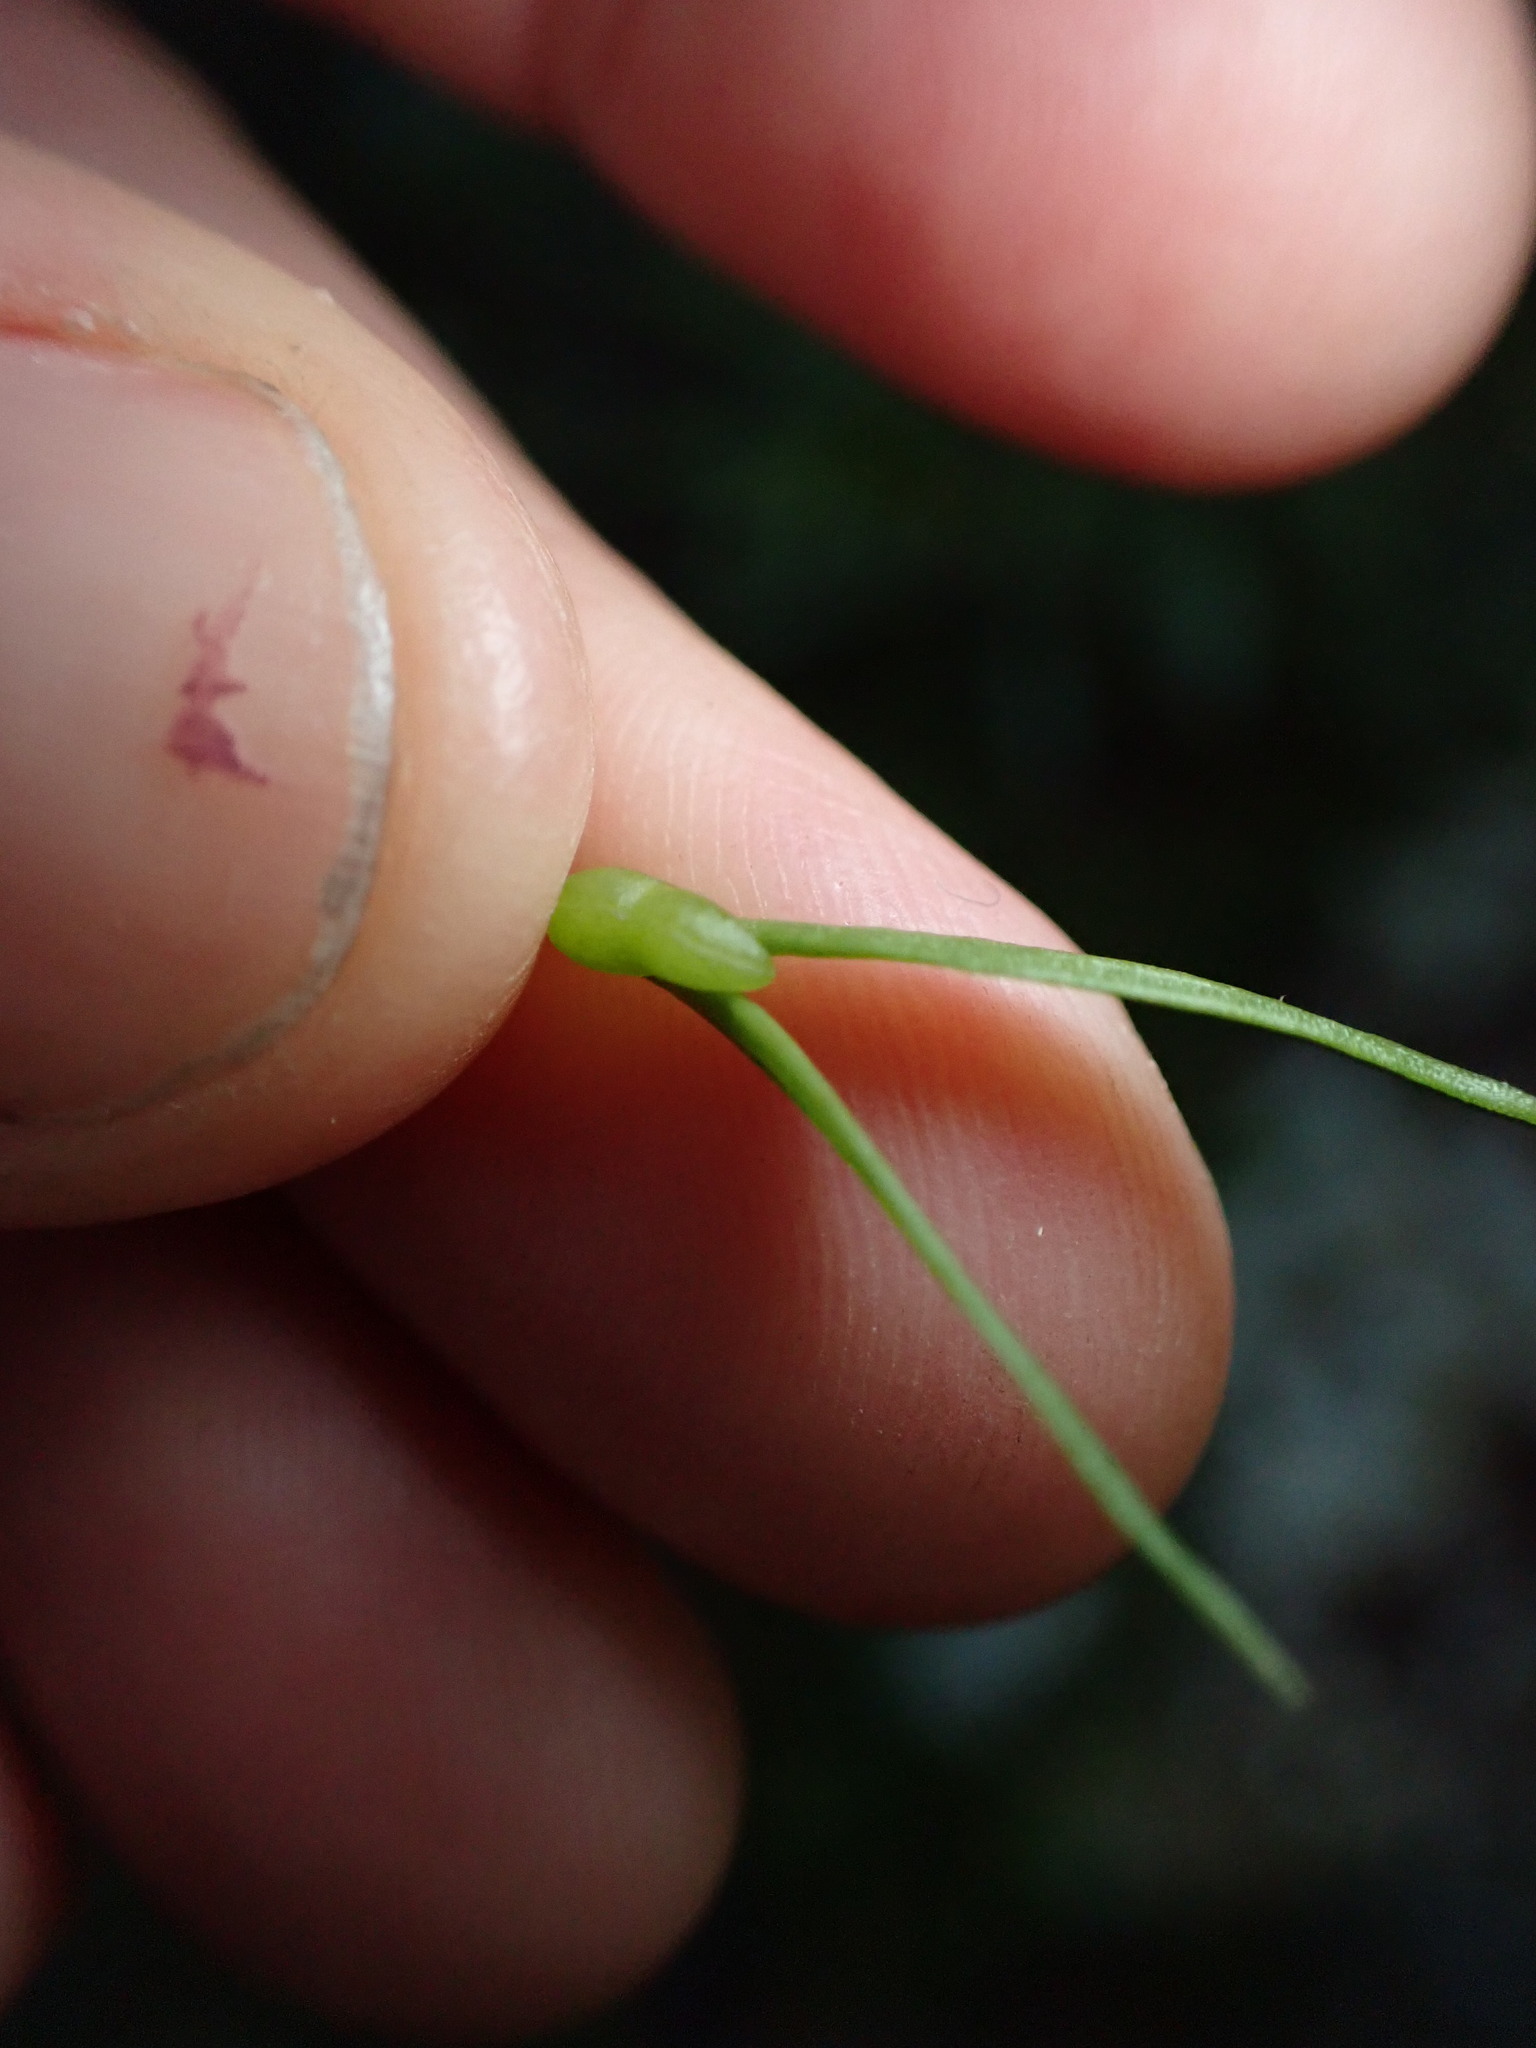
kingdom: Plantae
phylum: Tracheophyta
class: Polypodiopsida
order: Psilotales
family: Psilotaceae
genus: Tmesipteris
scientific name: Tmesipteris elongata
